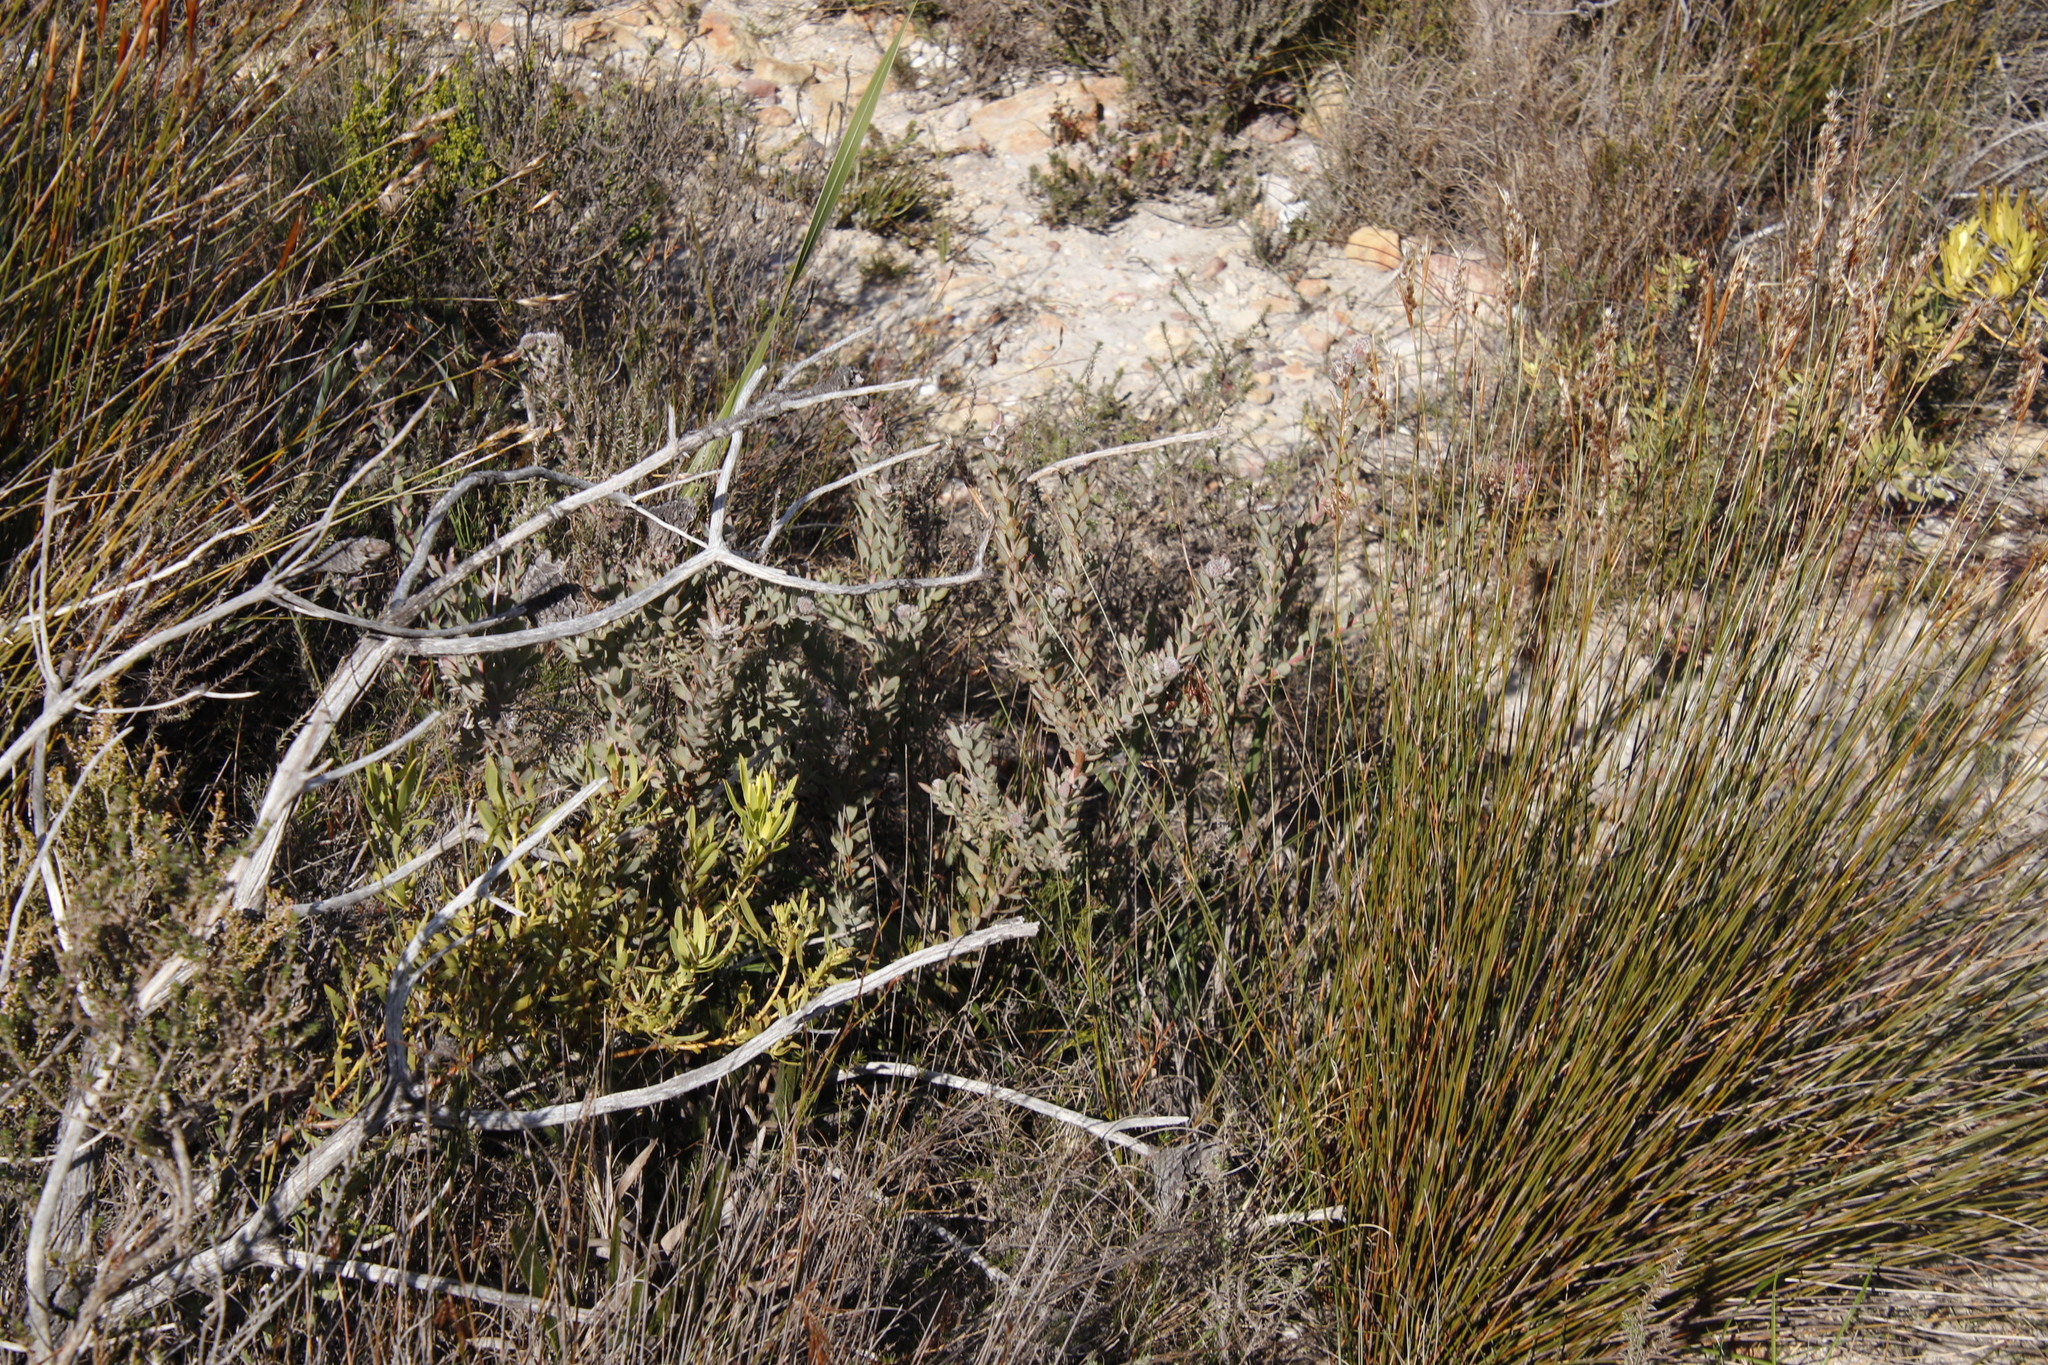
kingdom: Plantae
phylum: Tracheophyta
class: Magnoliopsida
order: Proteales
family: Proteaceae
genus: Leucospermum
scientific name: Leucospermum calligerum
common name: Arid pincushion
